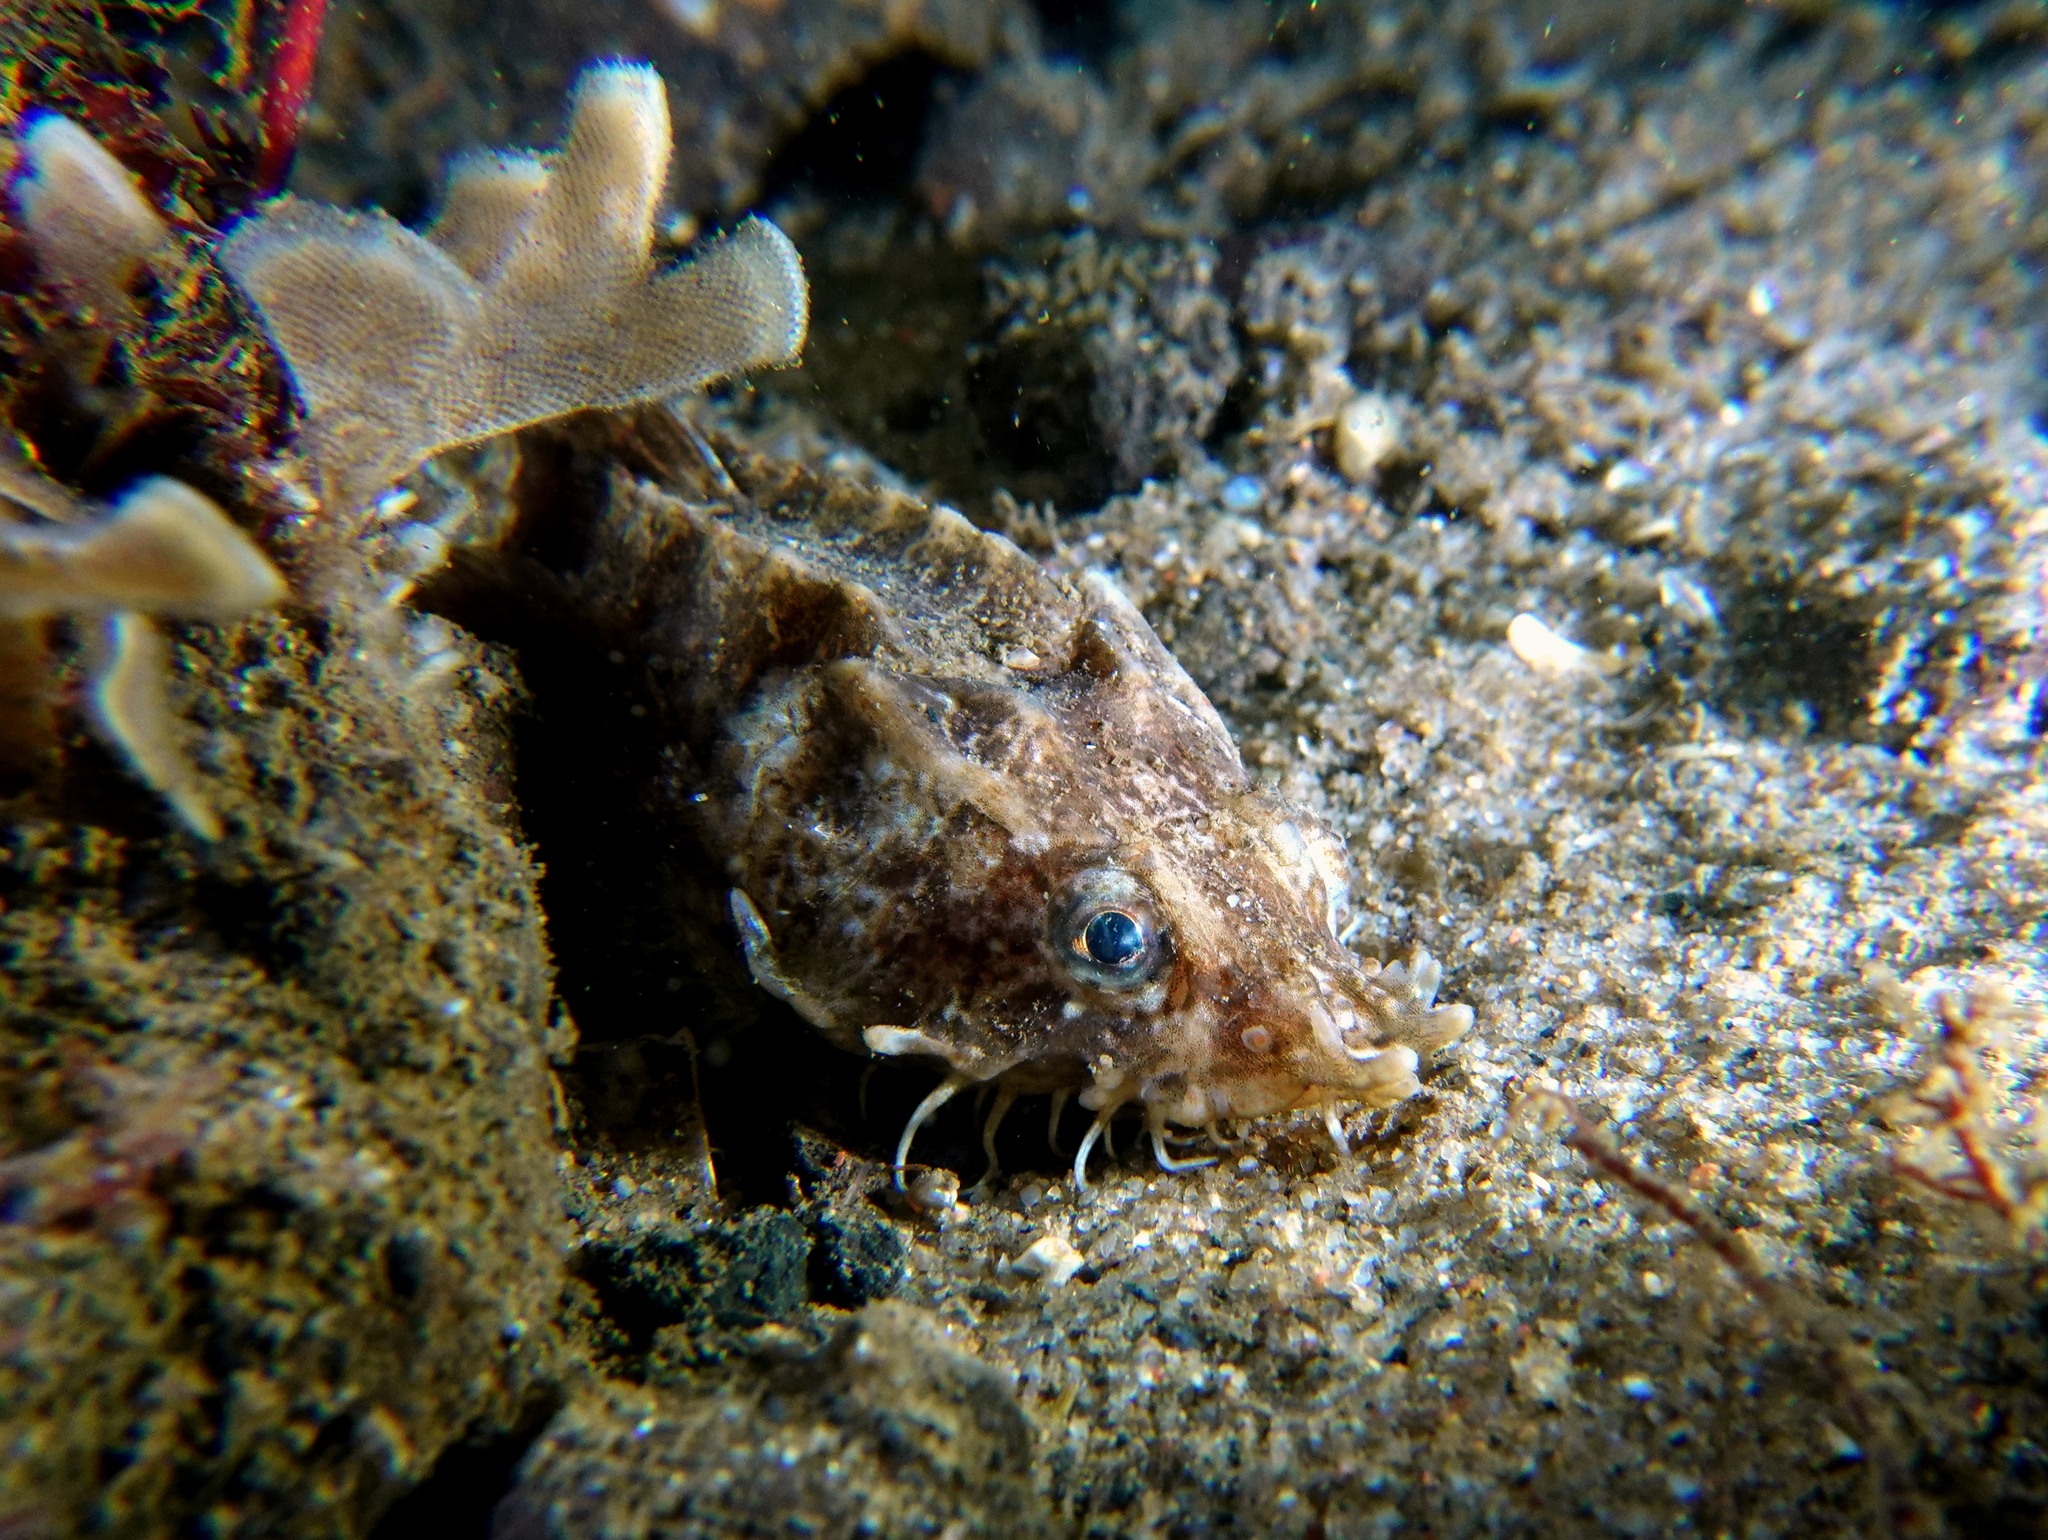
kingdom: Animalia
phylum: Chordata
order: Scorpaeniformes
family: Agonidae
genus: Agonus
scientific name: Agonus cataphractus
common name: Pogge
